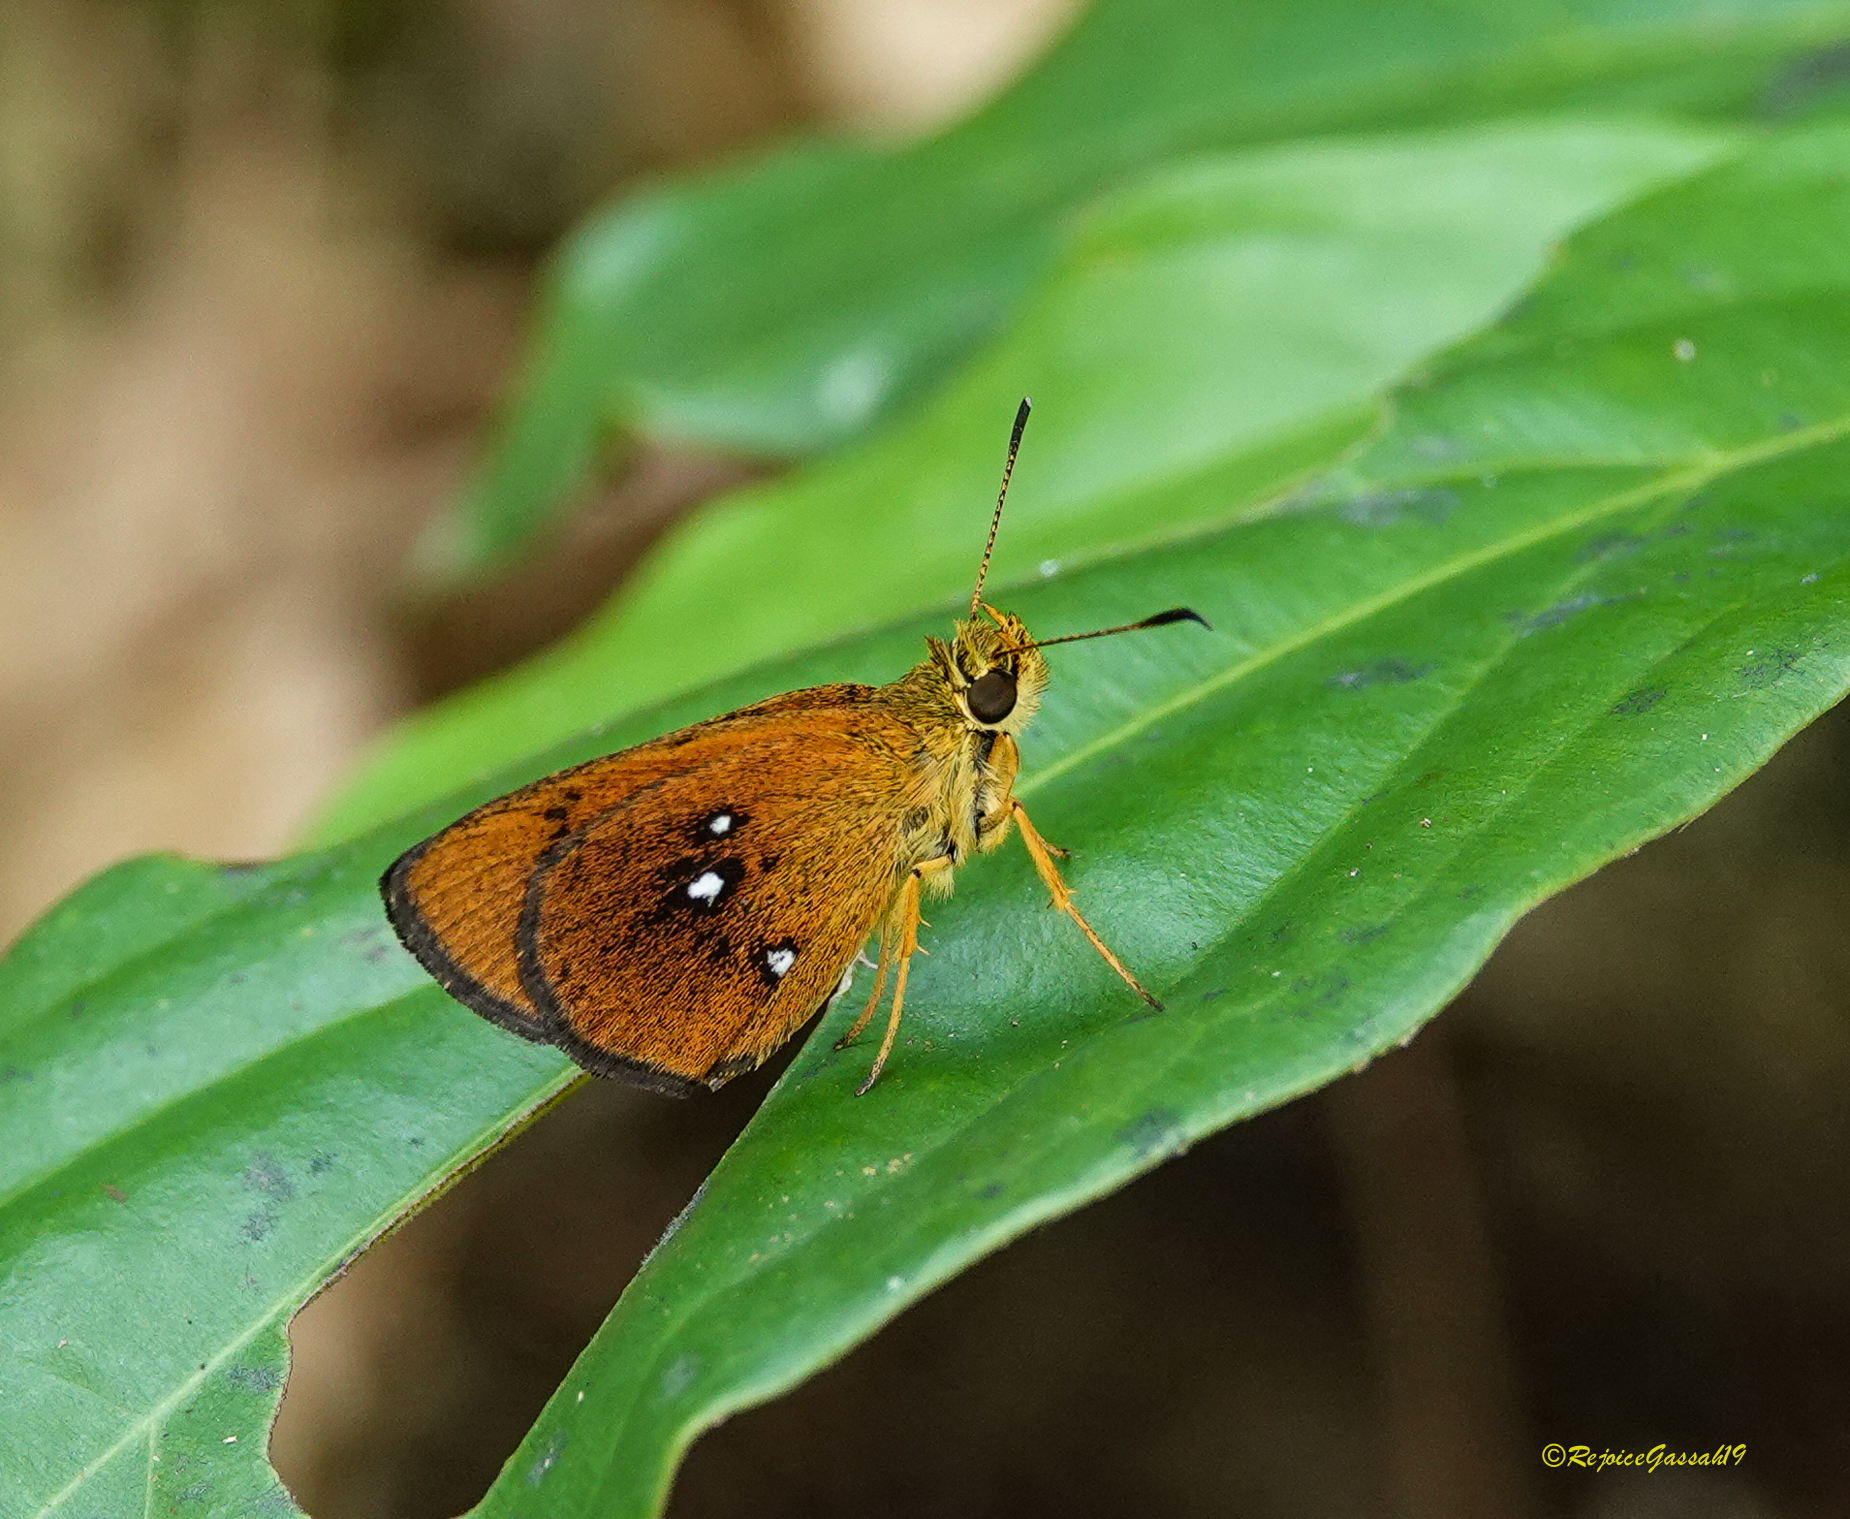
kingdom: Animalia
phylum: Arthropoda
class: Insecta
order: Lepidoptera
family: Hesperiidae
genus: Iambrix
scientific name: Iambrix salsala
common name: Chestnut bob
